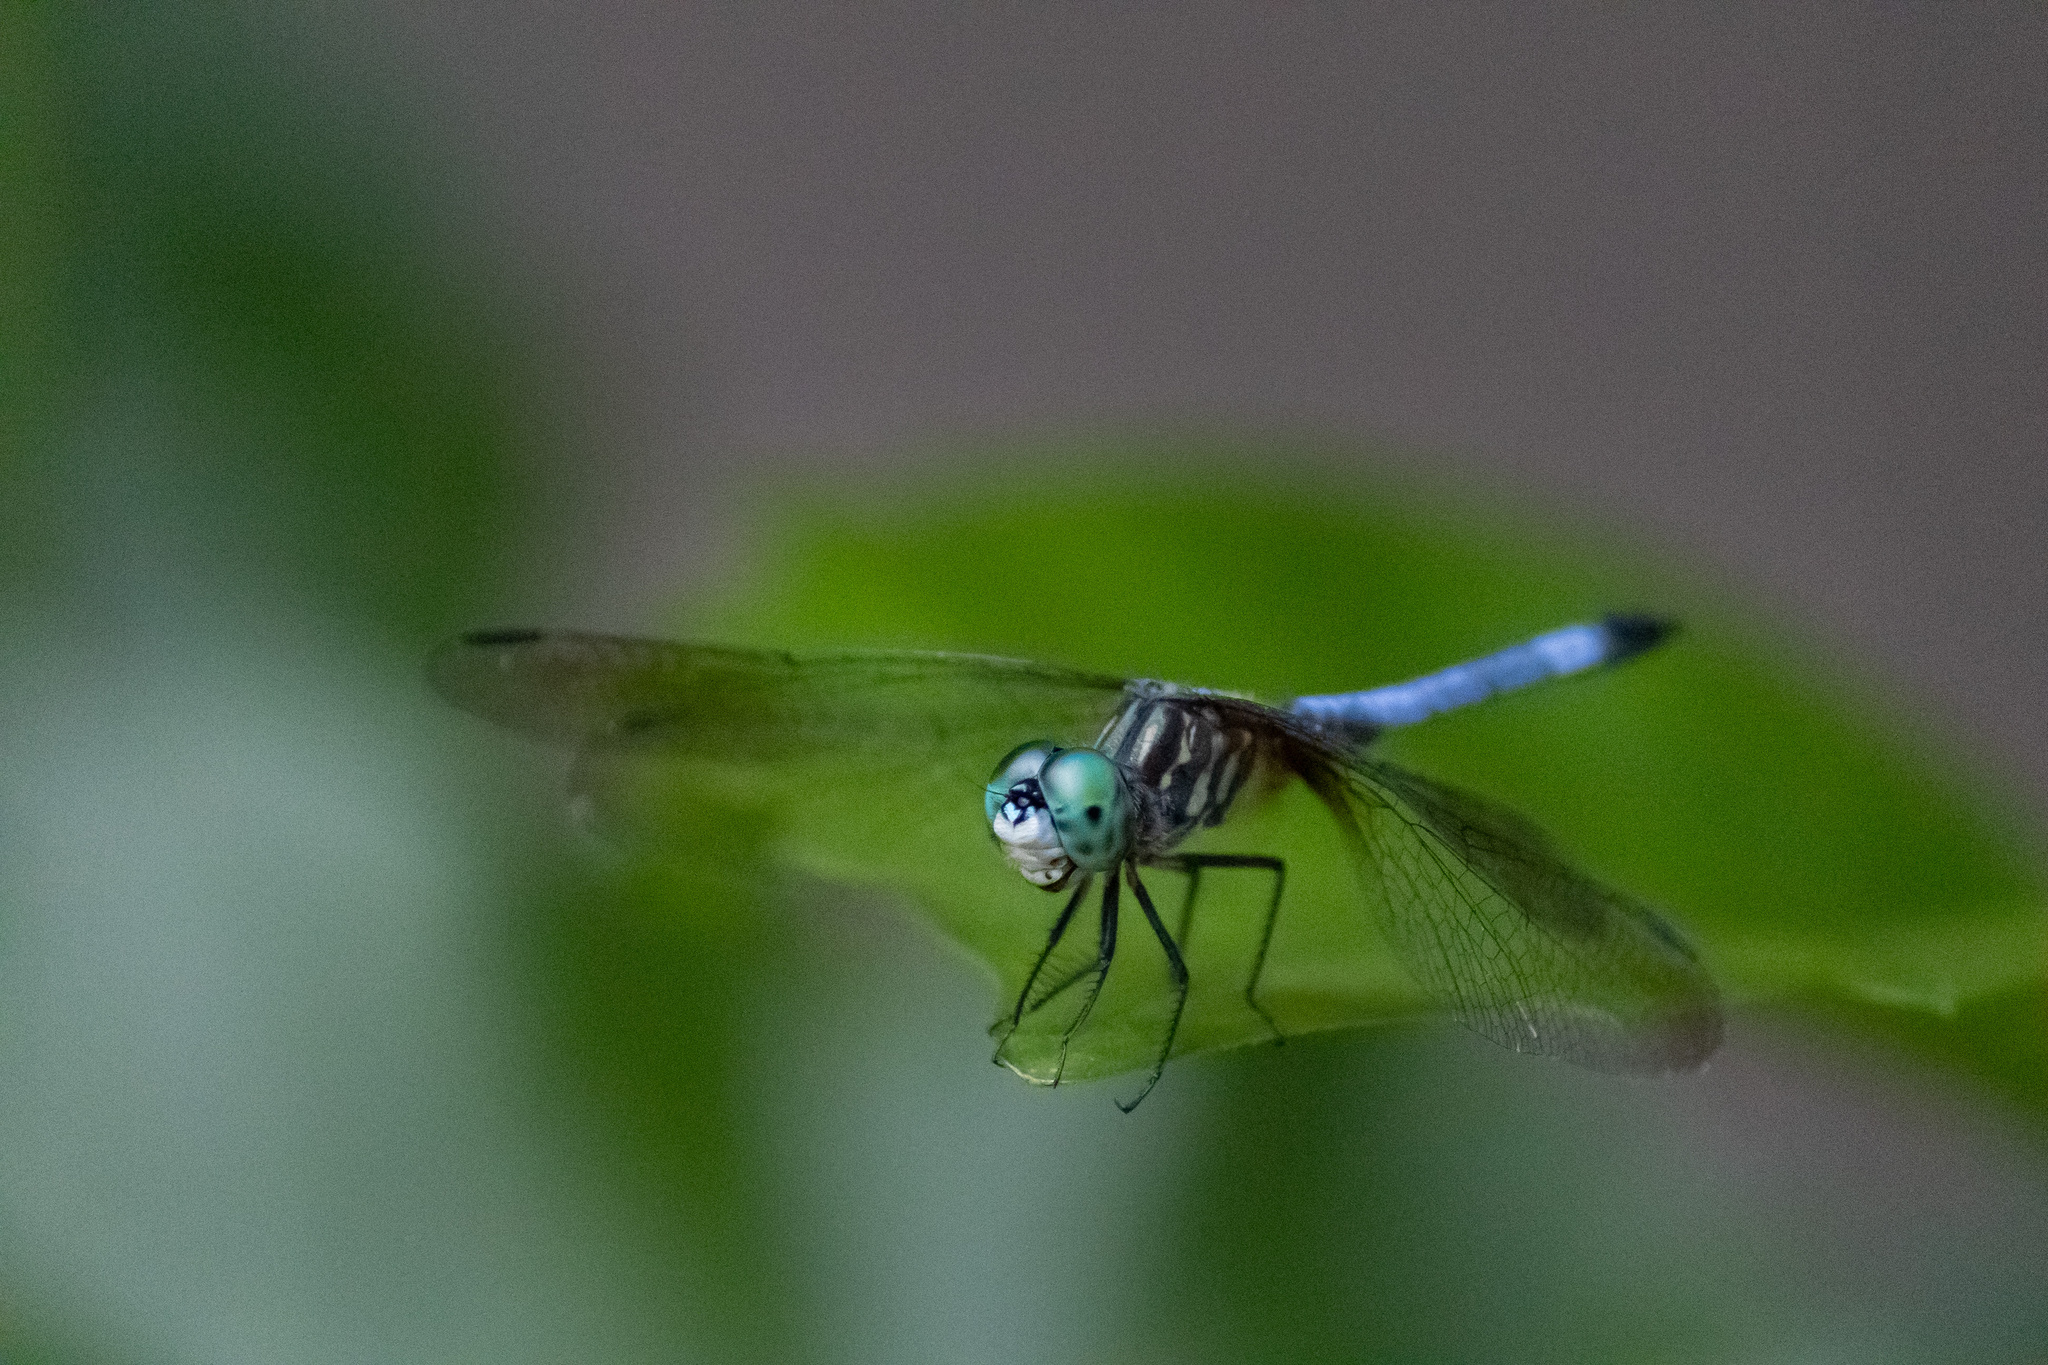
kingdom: Animalia
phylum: Arthropoda
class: Insecta
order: Odonata
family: Libellulidae
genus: Pachydiplax
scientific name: Pachydiplax longipennis
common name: Blue dasher
